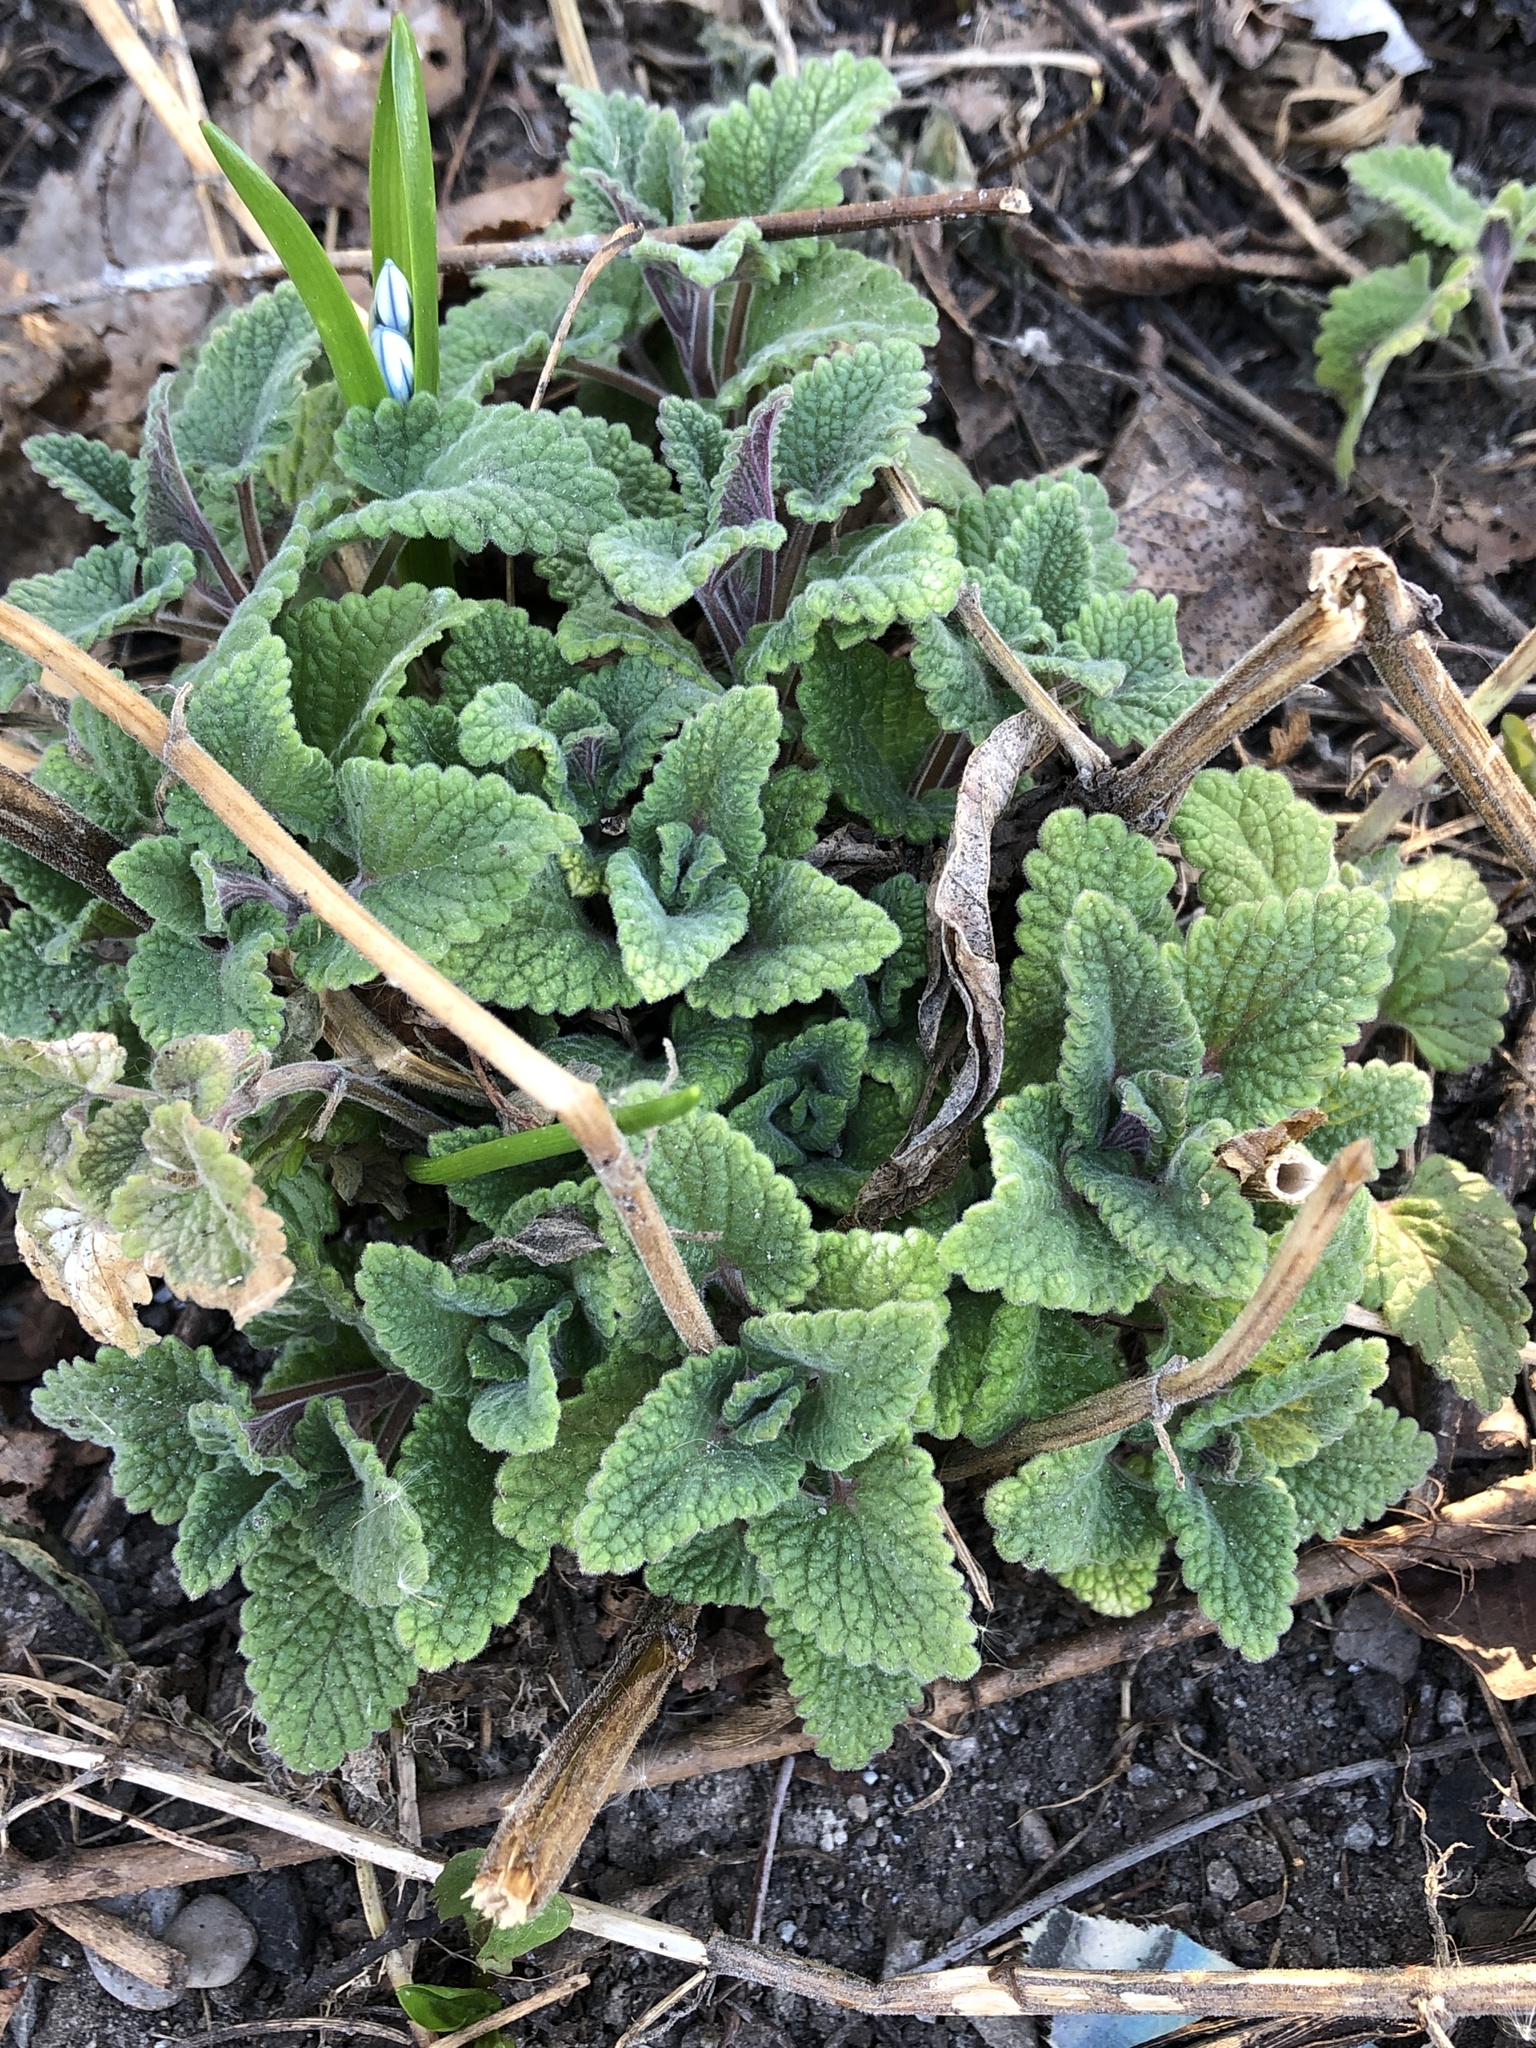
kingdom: Plantae
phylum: Tracheophyta
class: Magnoliopsida
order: Lamiales
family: Lamiaceae
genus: Nepeta
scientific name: Nepeta cataria
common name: Catnip
